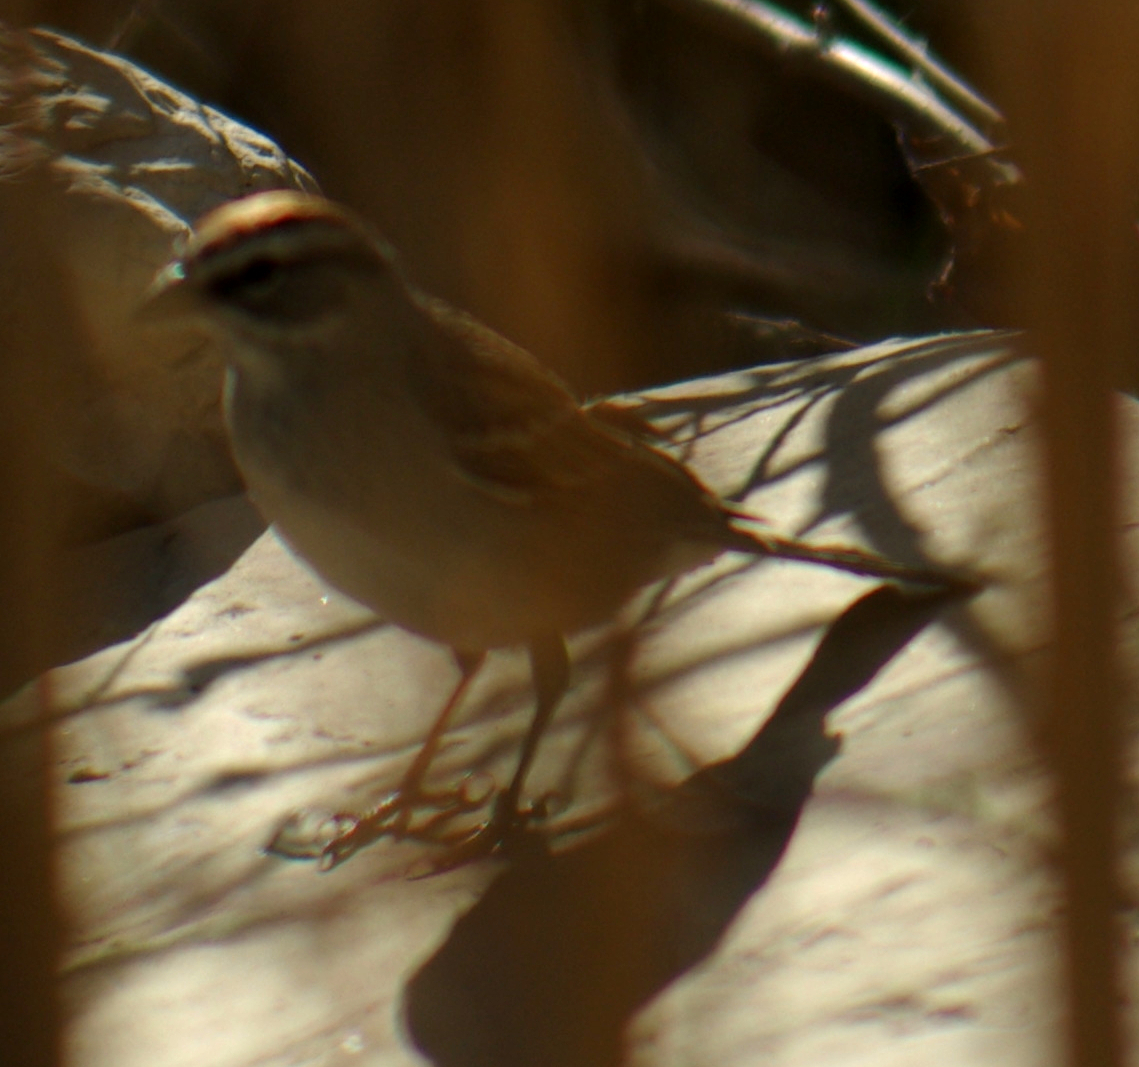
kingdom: Animalia
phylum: Chordata
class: Aves
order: Passeriformes
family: Passerellidae
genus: Spizella
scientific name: Spizella passerina
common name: Chipping sparrow
